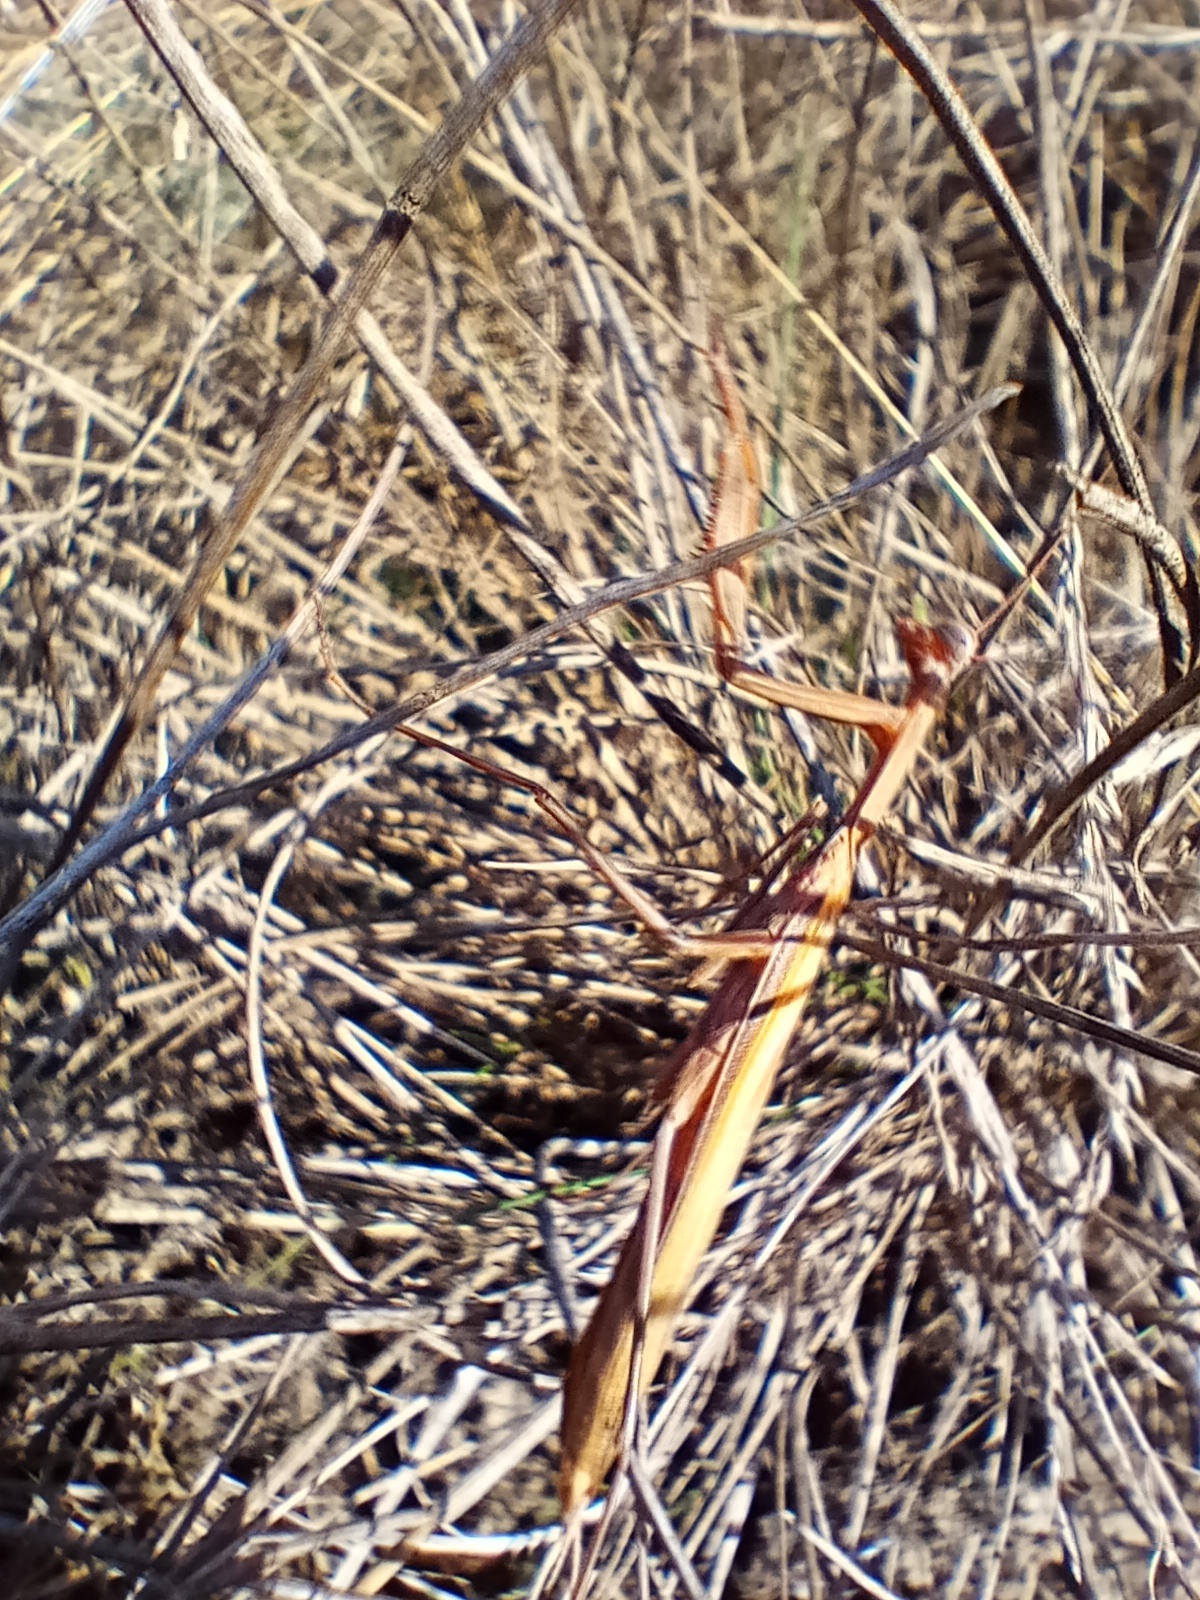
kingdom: Animalia
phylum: Arthropoda
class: Insecta
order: Mantodea
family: Mantidae
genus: Mantis
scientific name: Mantis religiosa
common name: Praying mantis
